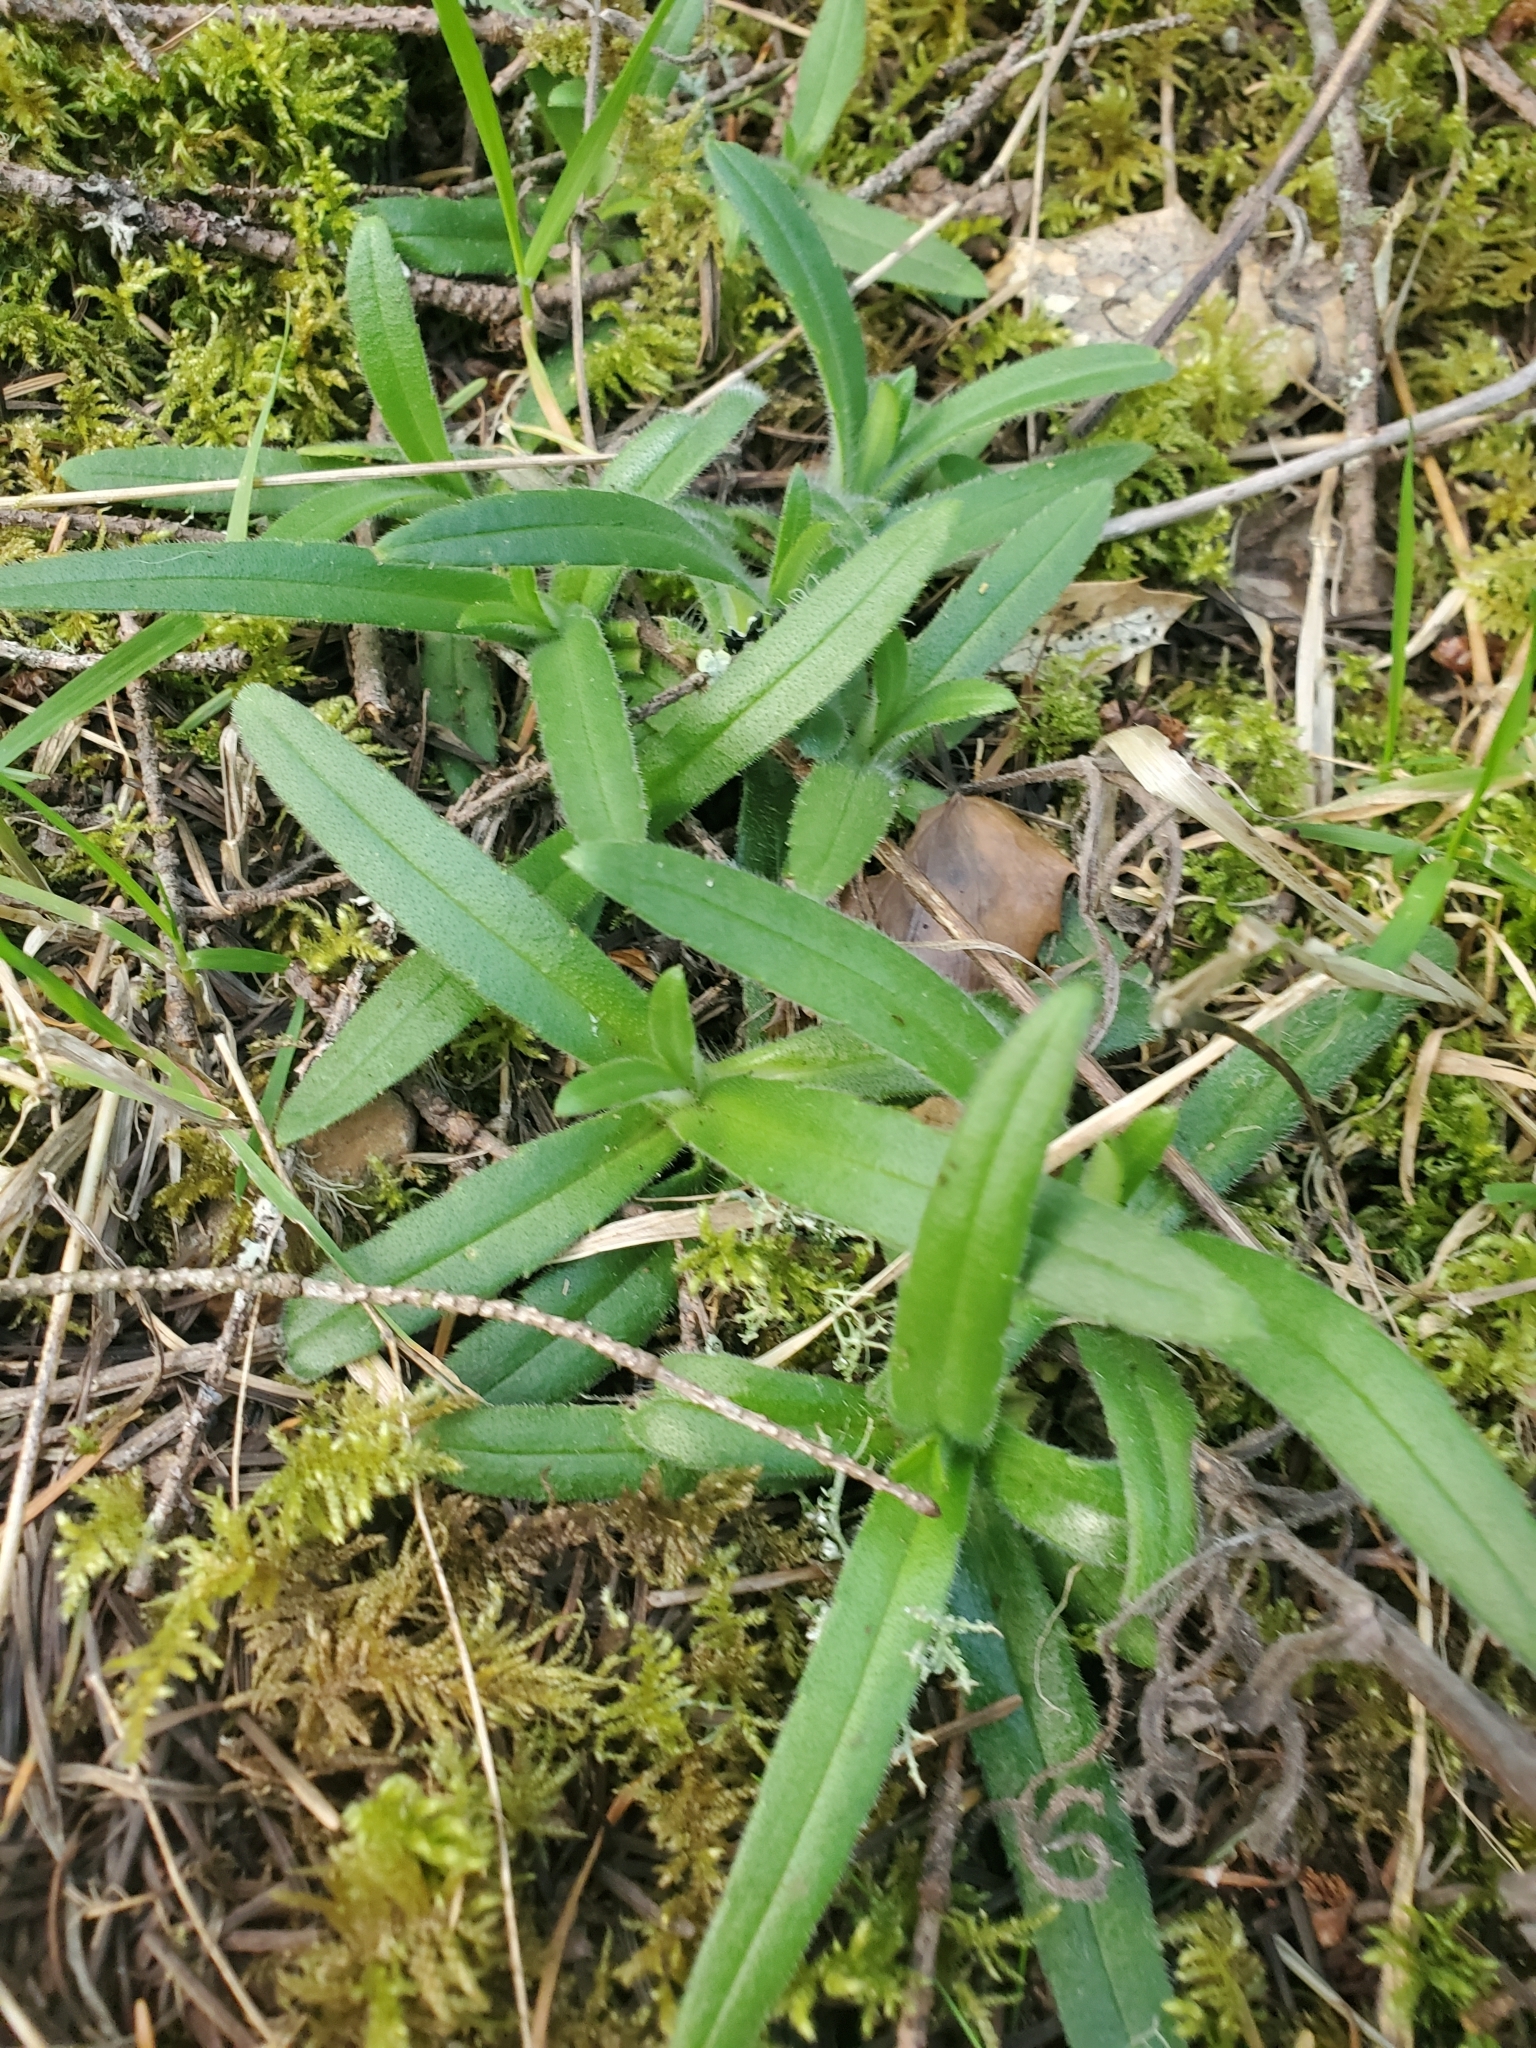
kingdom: Plantae
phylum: Tracheophyta
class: Magnoliopsida
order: Asterales
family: Asteraceae
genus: Anisocarpus
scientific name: Anisocarpus madioides
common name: Woodland madia
